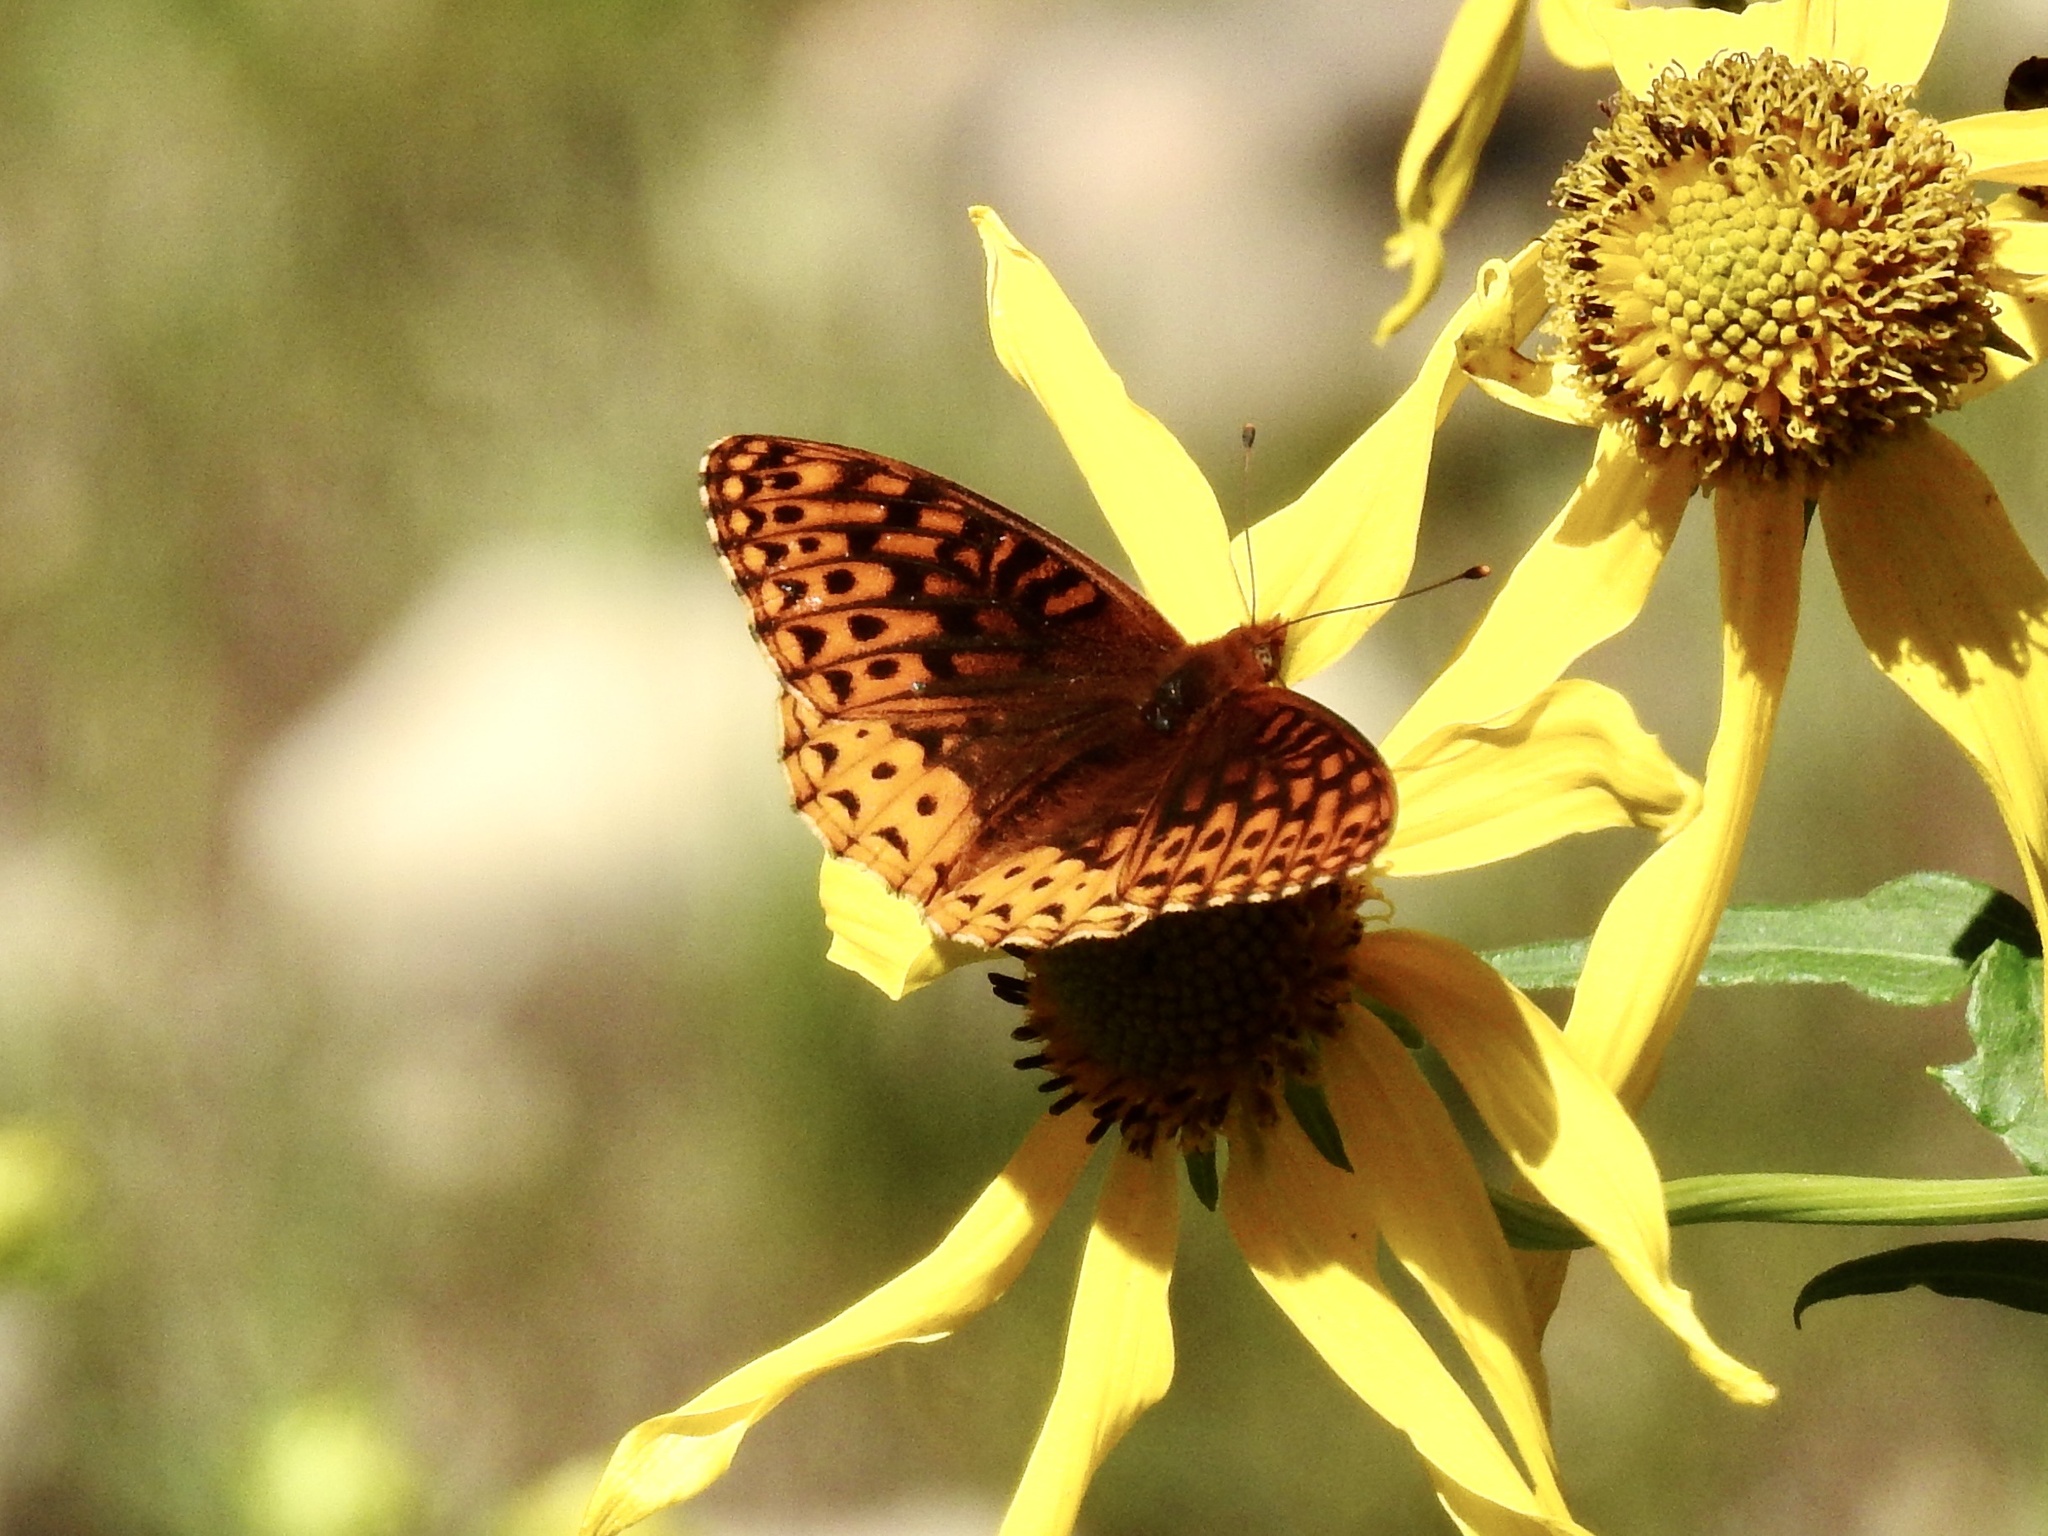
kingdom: Animalia
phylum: Arthropoda
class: Insecta
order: Lepidoptera
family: Nymphalidae
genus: Speyeria
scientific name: Speyeria atlantis
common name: Atlantis fritillary
